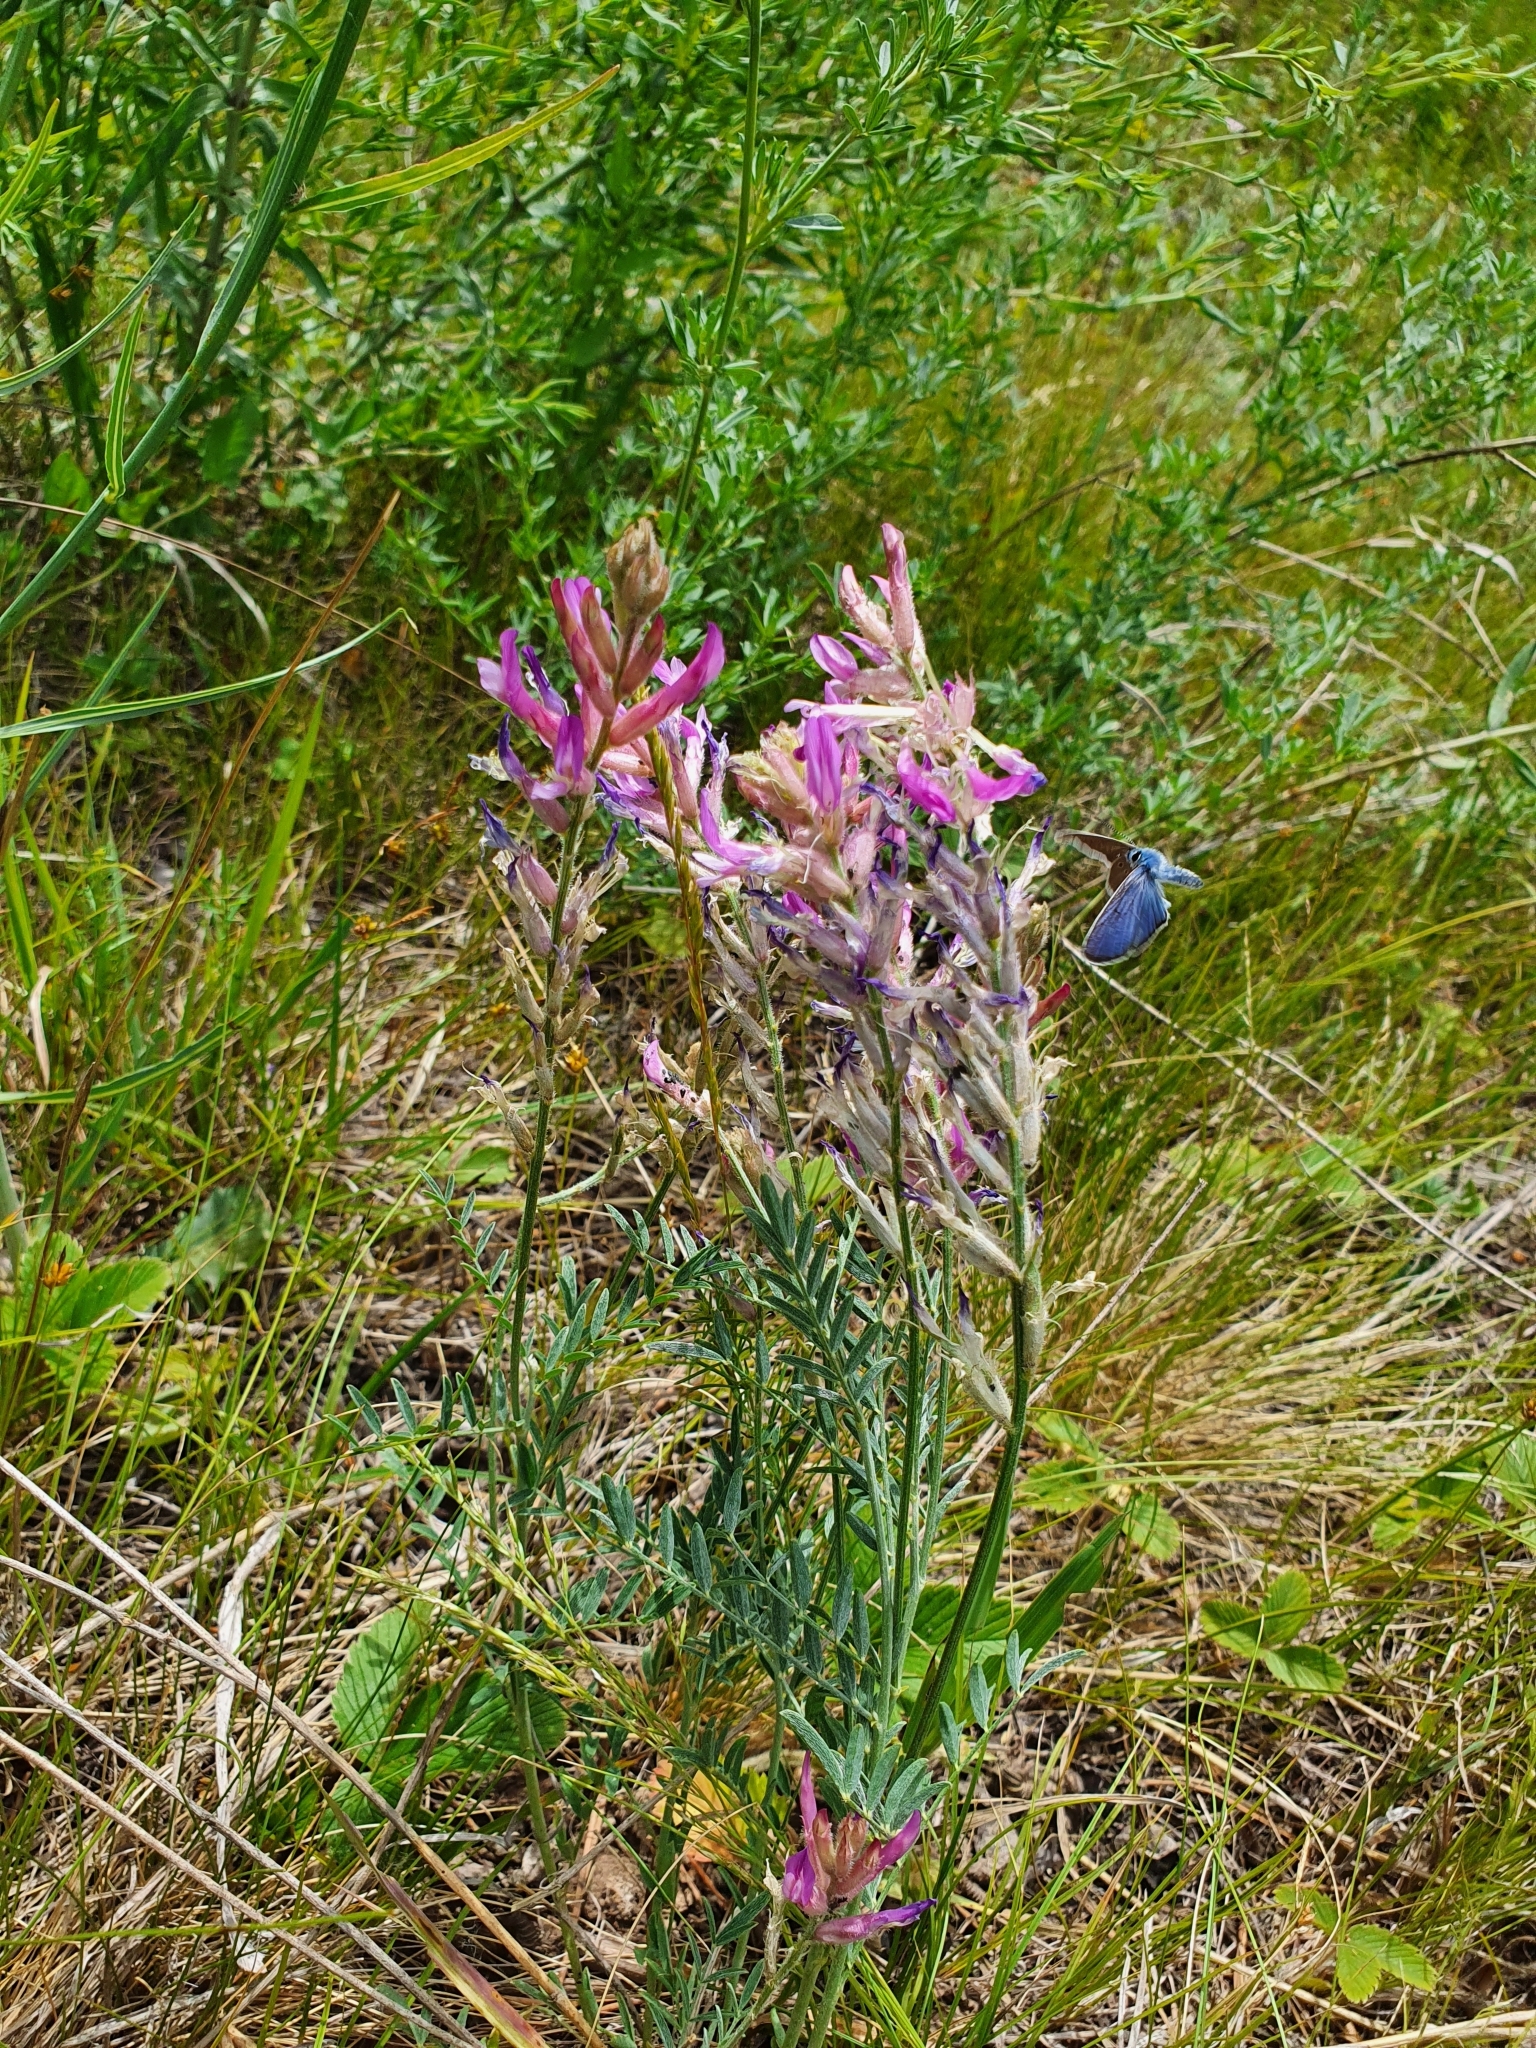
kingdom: Plantae
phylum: Tracheophyta
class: Magnoliopsida
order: Fabales
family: Fabaceae
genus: Astragalus
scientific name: Astragalus varius
